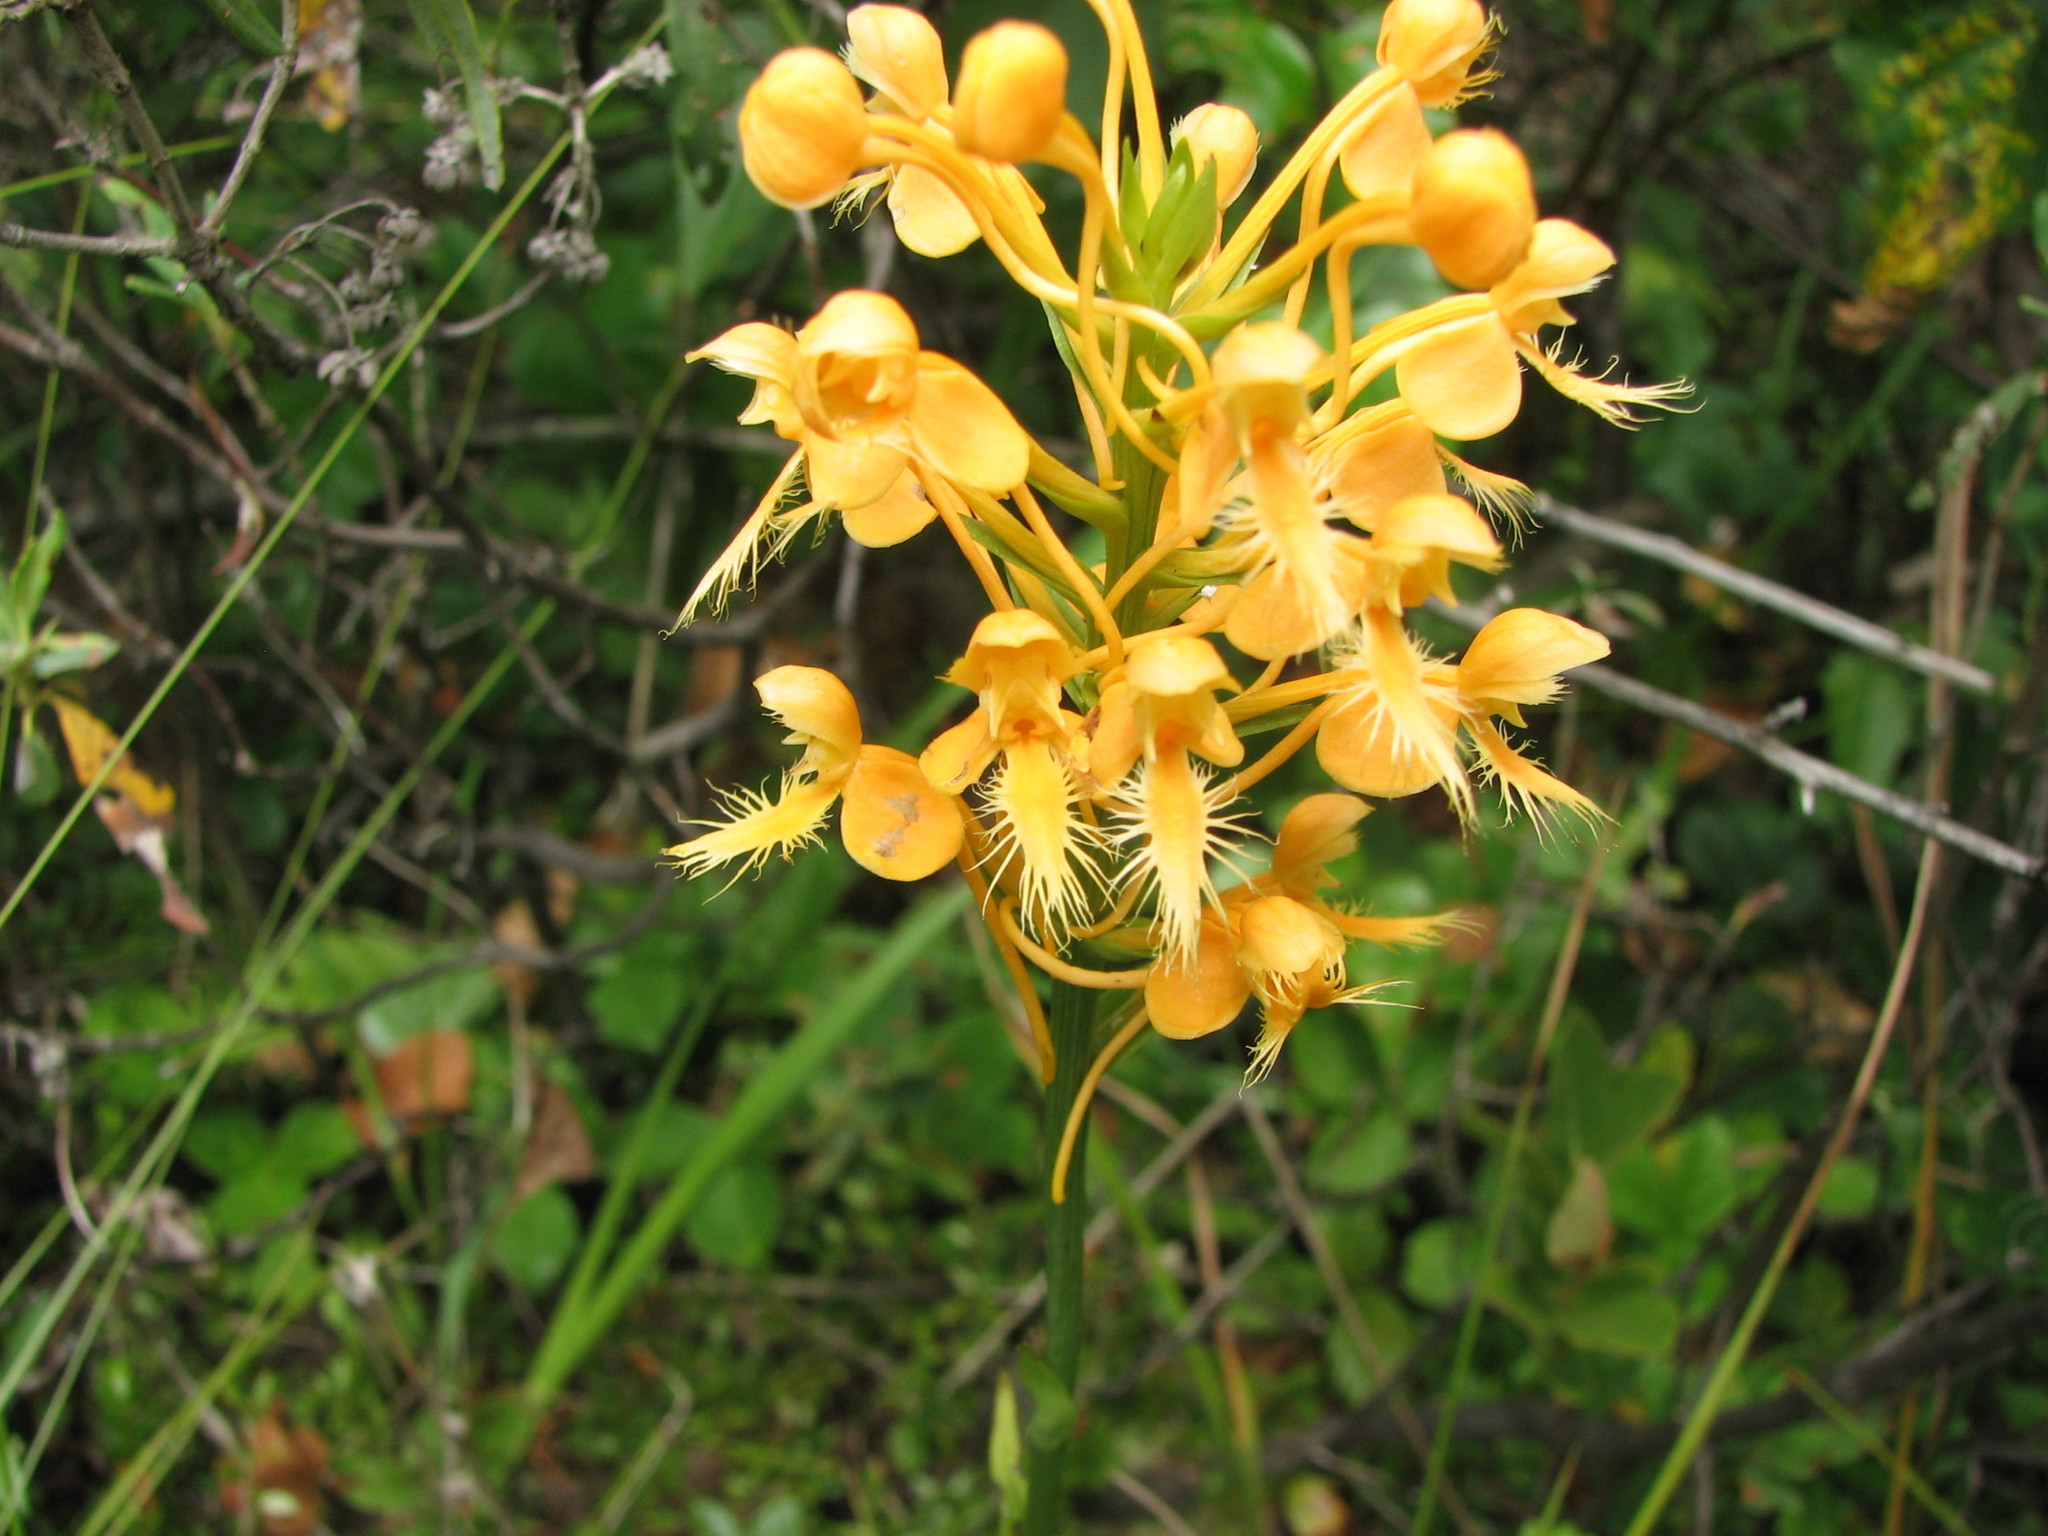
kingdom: Plantae
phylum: Tracheophyta
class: Liliopsida
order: Asparagales
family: Orchidaceae
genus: Platanthera
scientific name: Platanthera ciliaris
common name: Yellow fringed orchid
